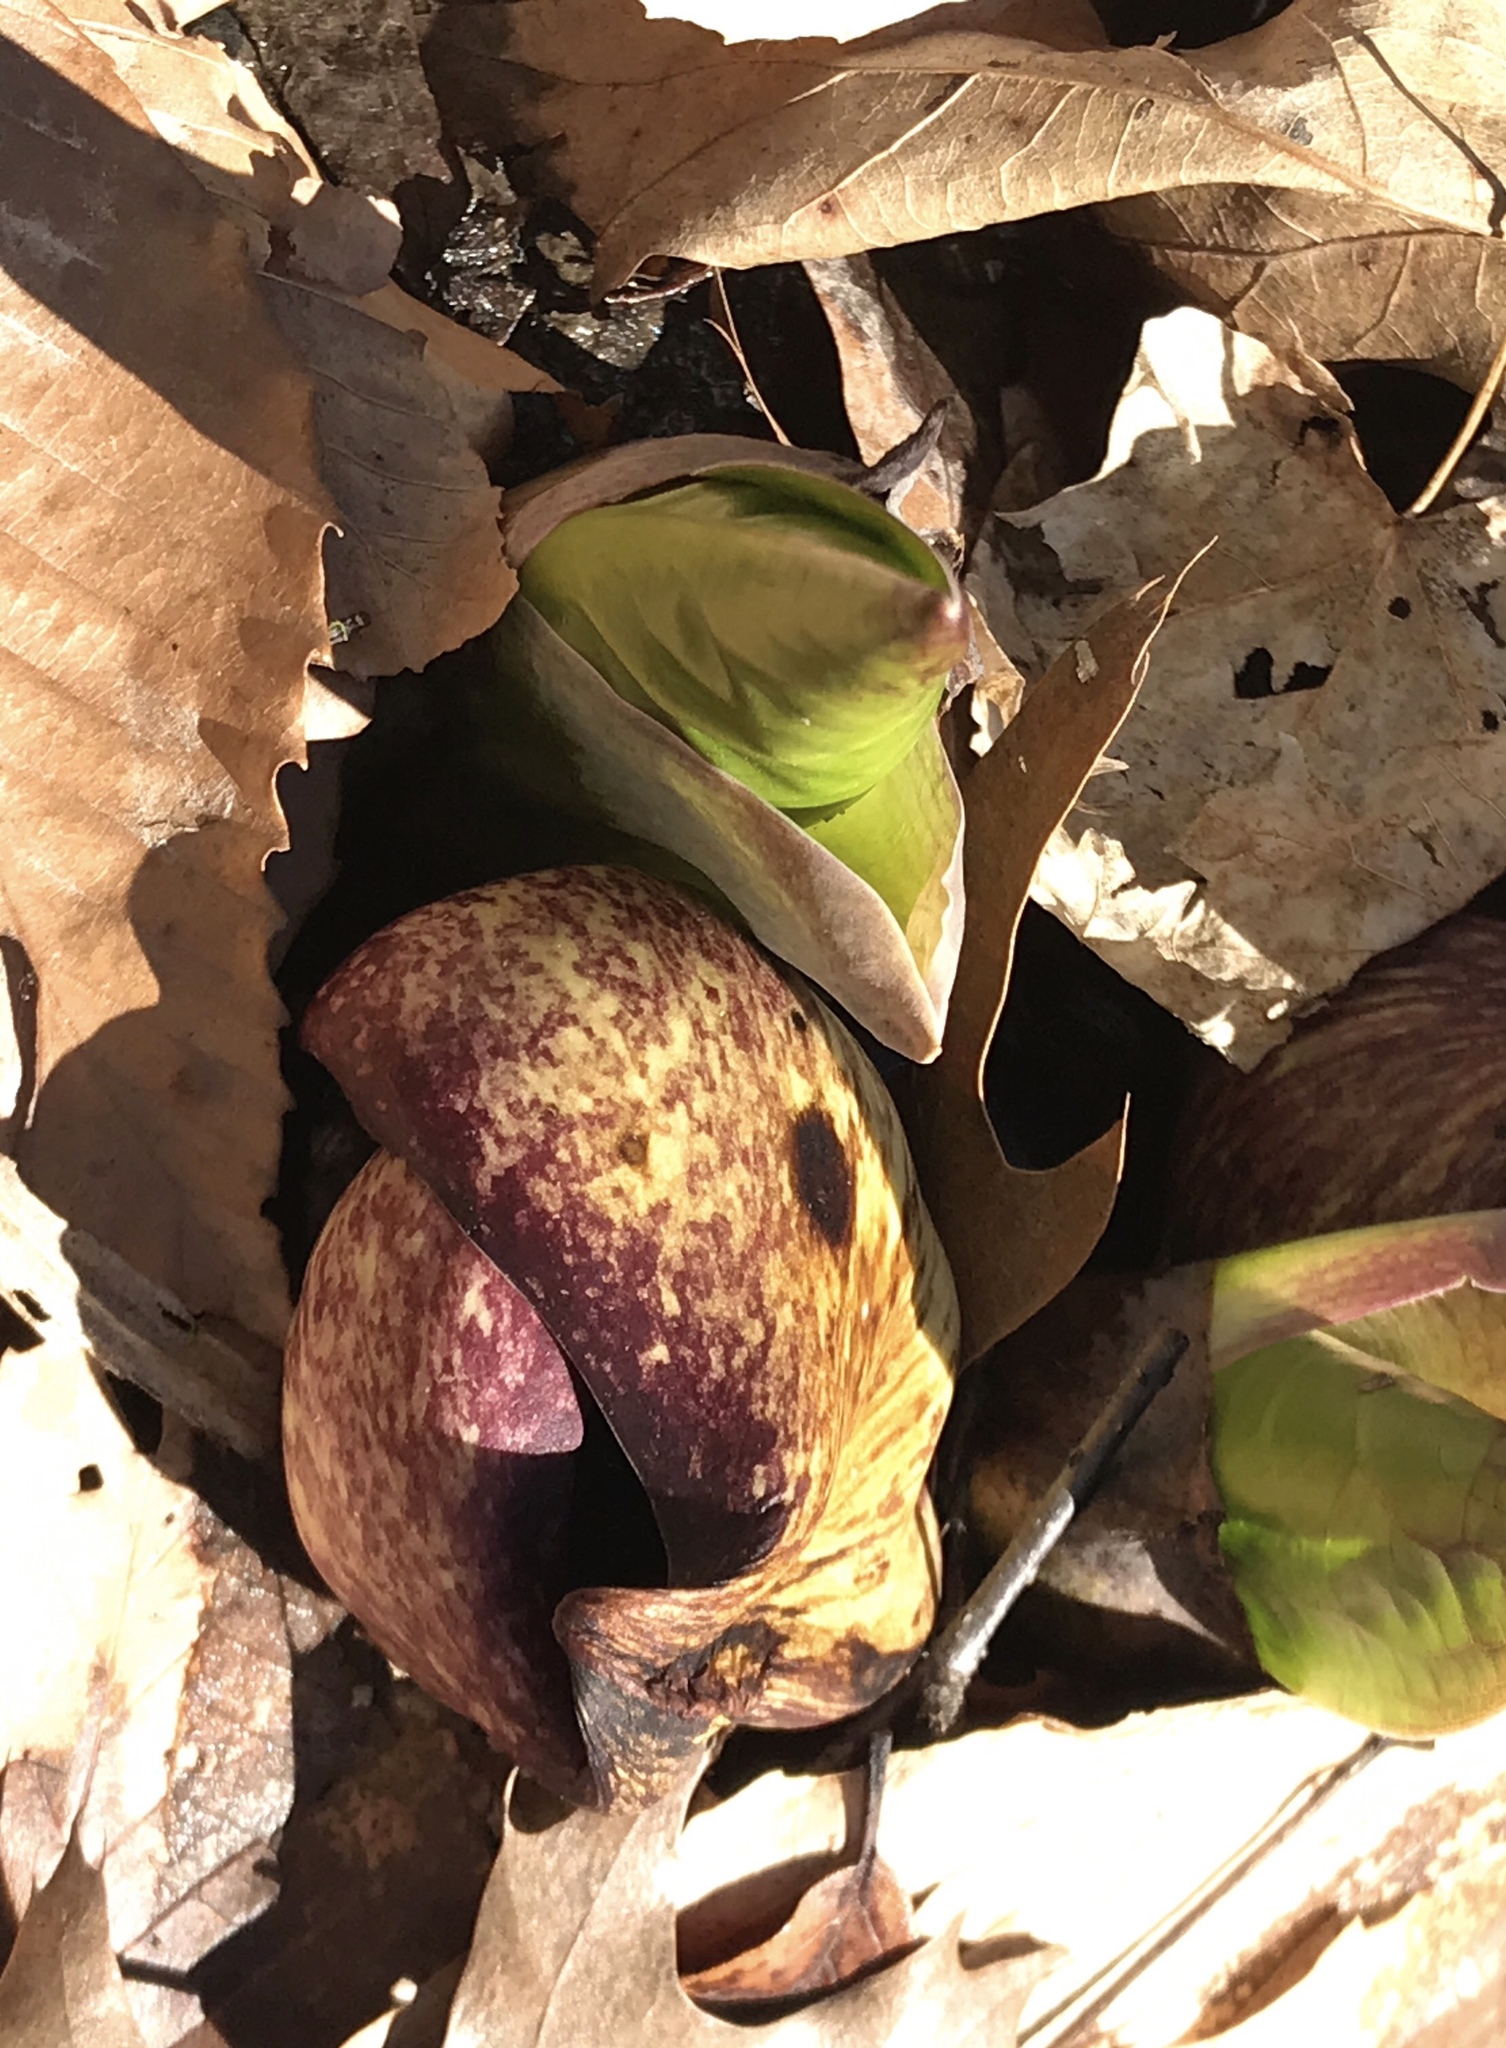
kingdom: Plantae
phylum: Tracheophyta
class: Liliopsida
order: Alismatales
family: Araceae
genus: Symplocarpus
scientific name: Symplocarpus foetidus
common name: Eastern skunk cabbage
